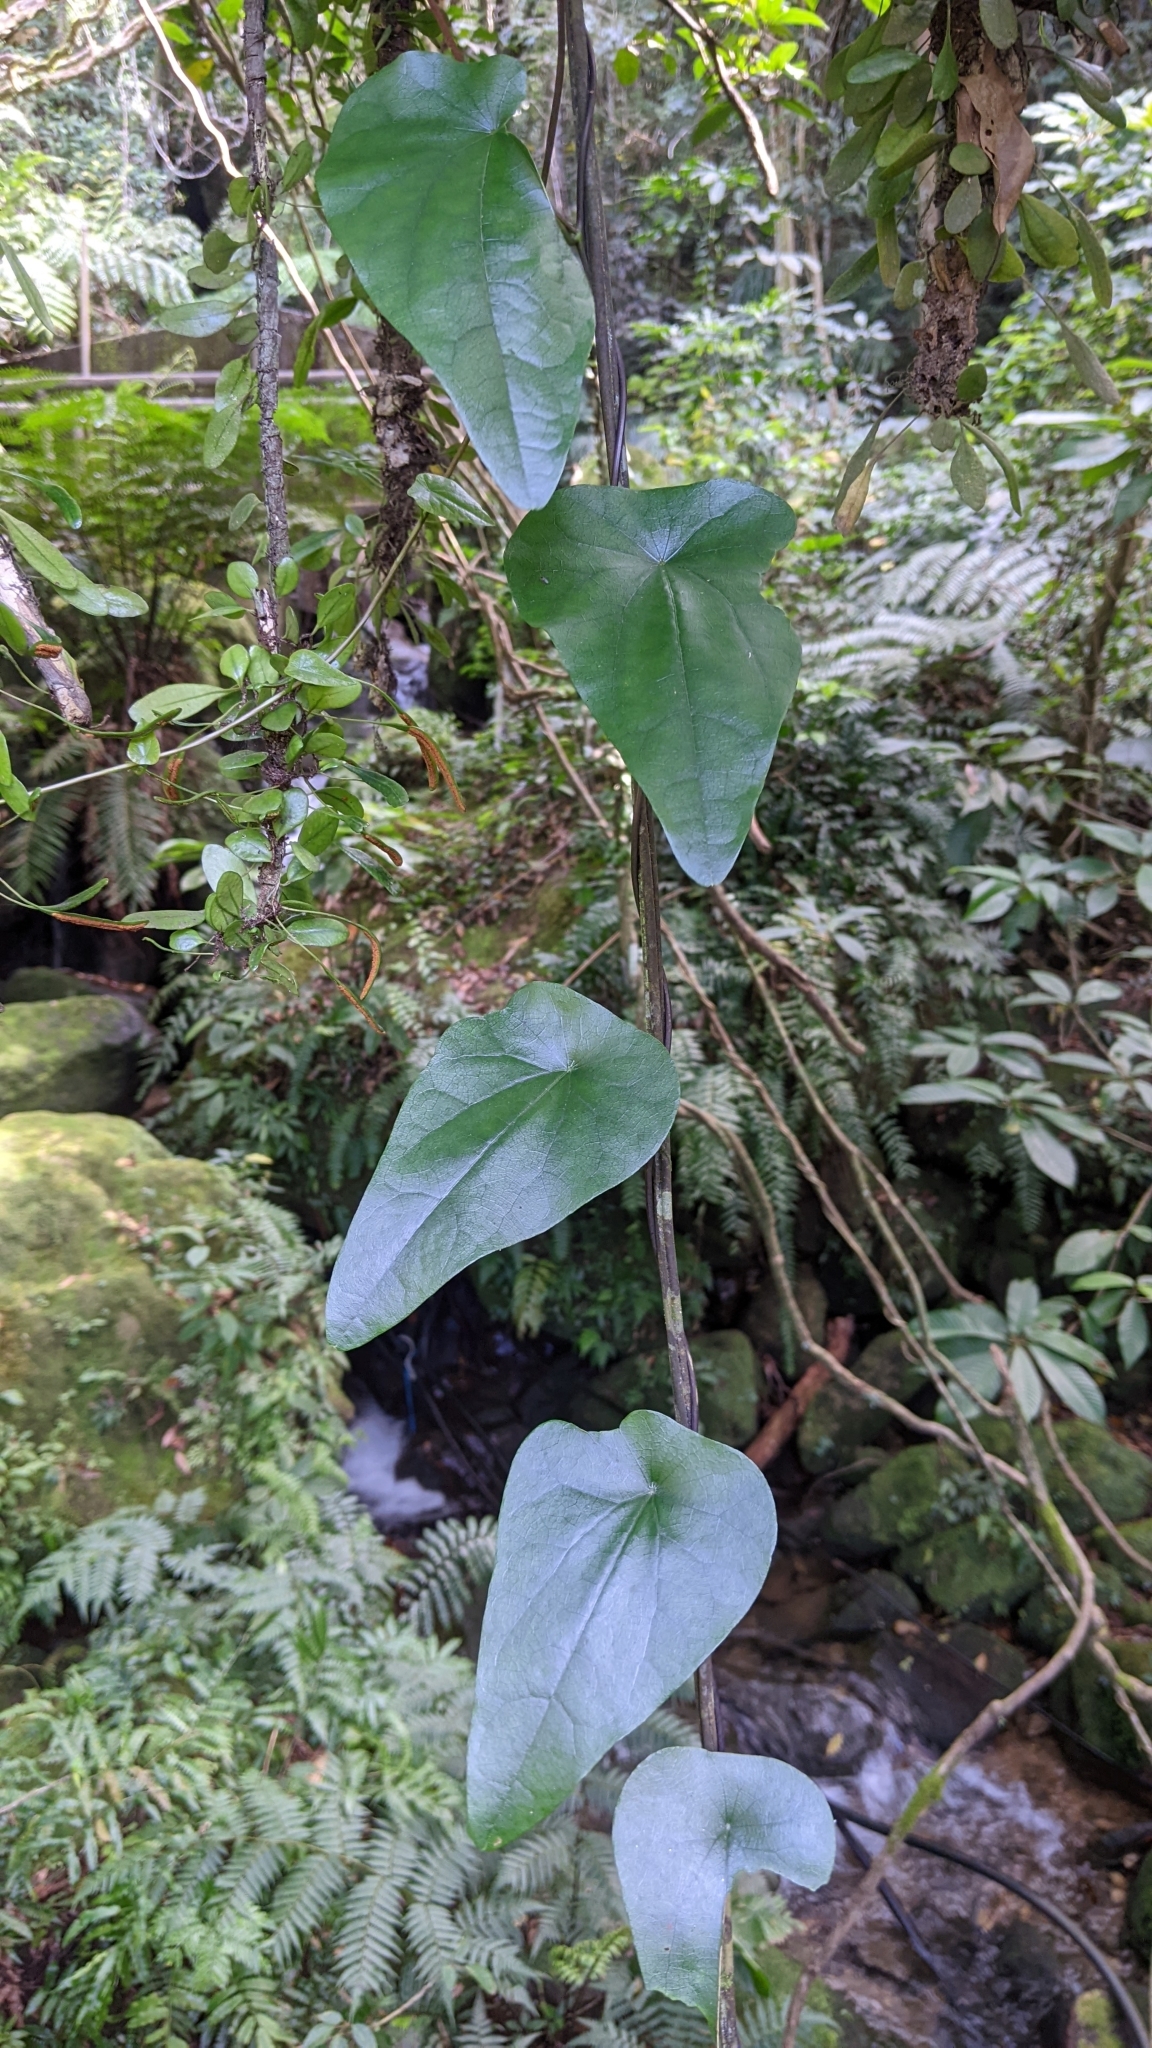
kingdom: Plantae
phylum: Tracheophyta
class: Magnoliopsida
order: Ranunculales
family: Menispermaceae
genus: Stephania
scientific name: Stephania longa
